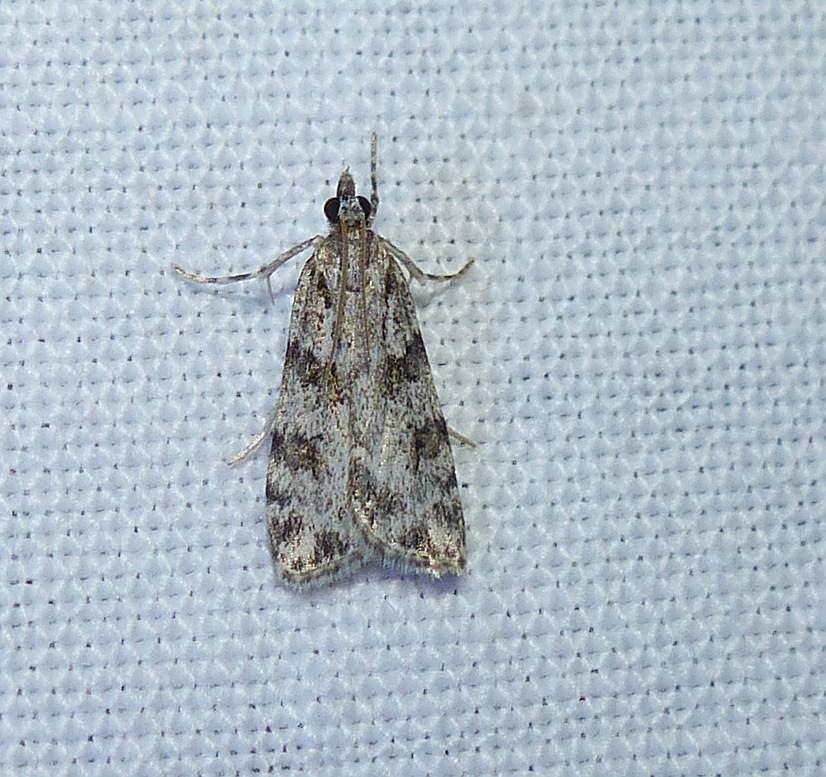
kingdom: Animalia
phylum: Arthropoda
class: Insecta
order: Lepidoptera
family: Crambidae
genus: Scoparia
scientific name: Scoparia biplagialis
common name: Double-striped scoparia moth
